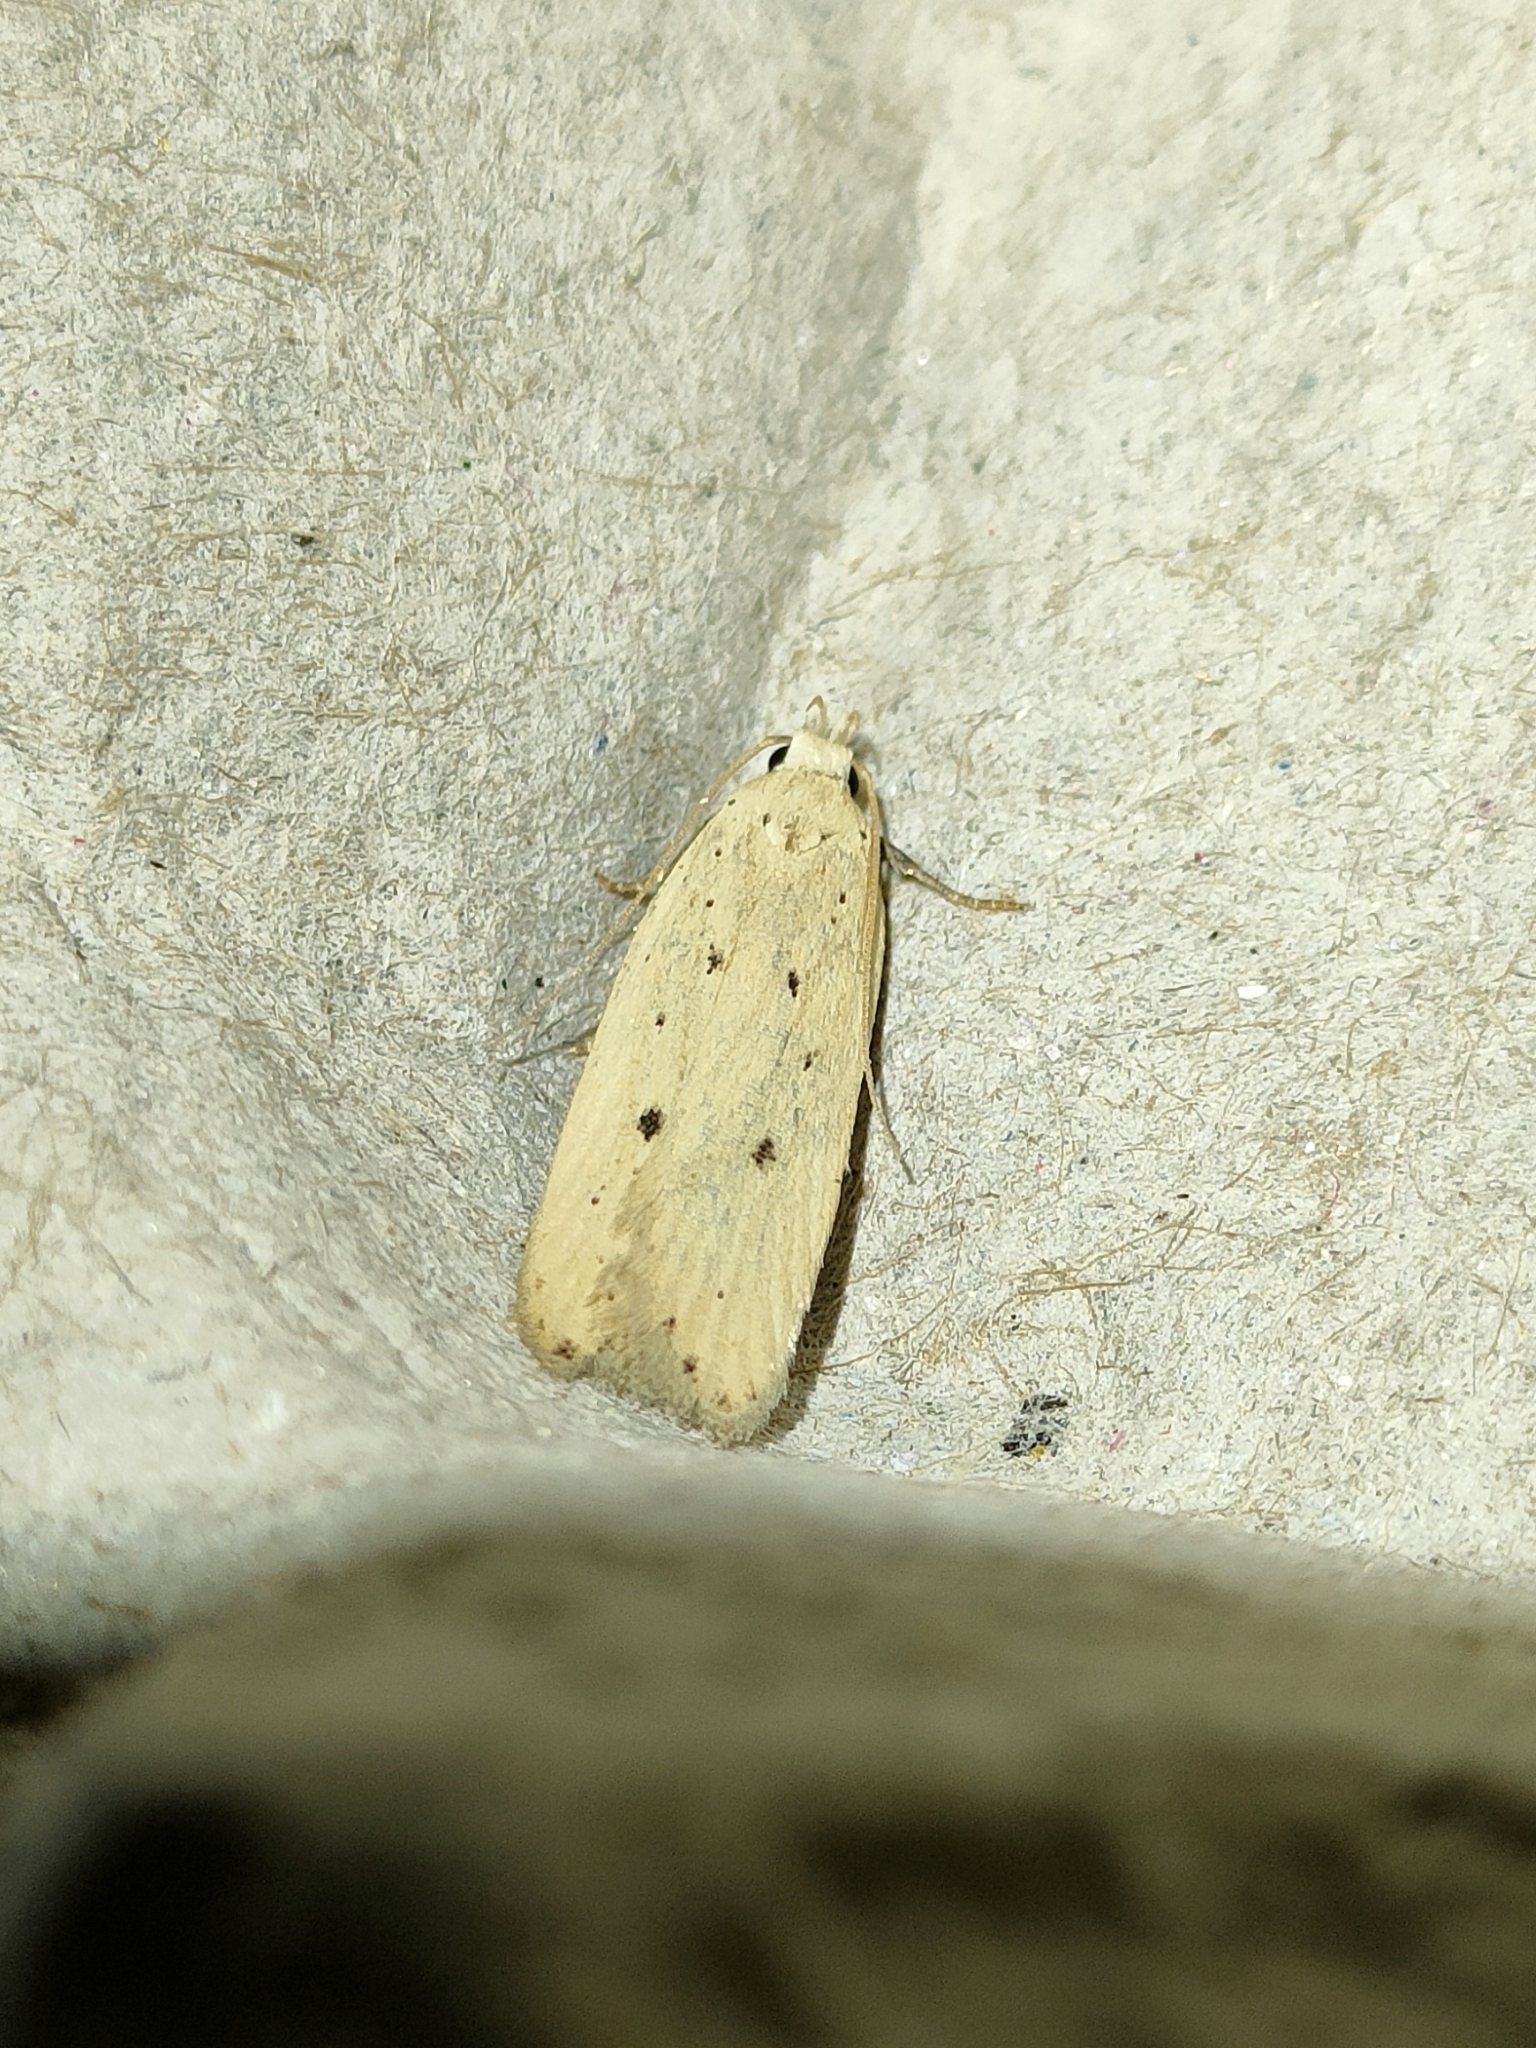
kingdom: Animalia
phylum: Arthropoda
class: Insecta
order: Lepidoptera
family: Gelechiidae
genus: Nothris
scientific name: Nothris verbascella
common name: Clay groundling
